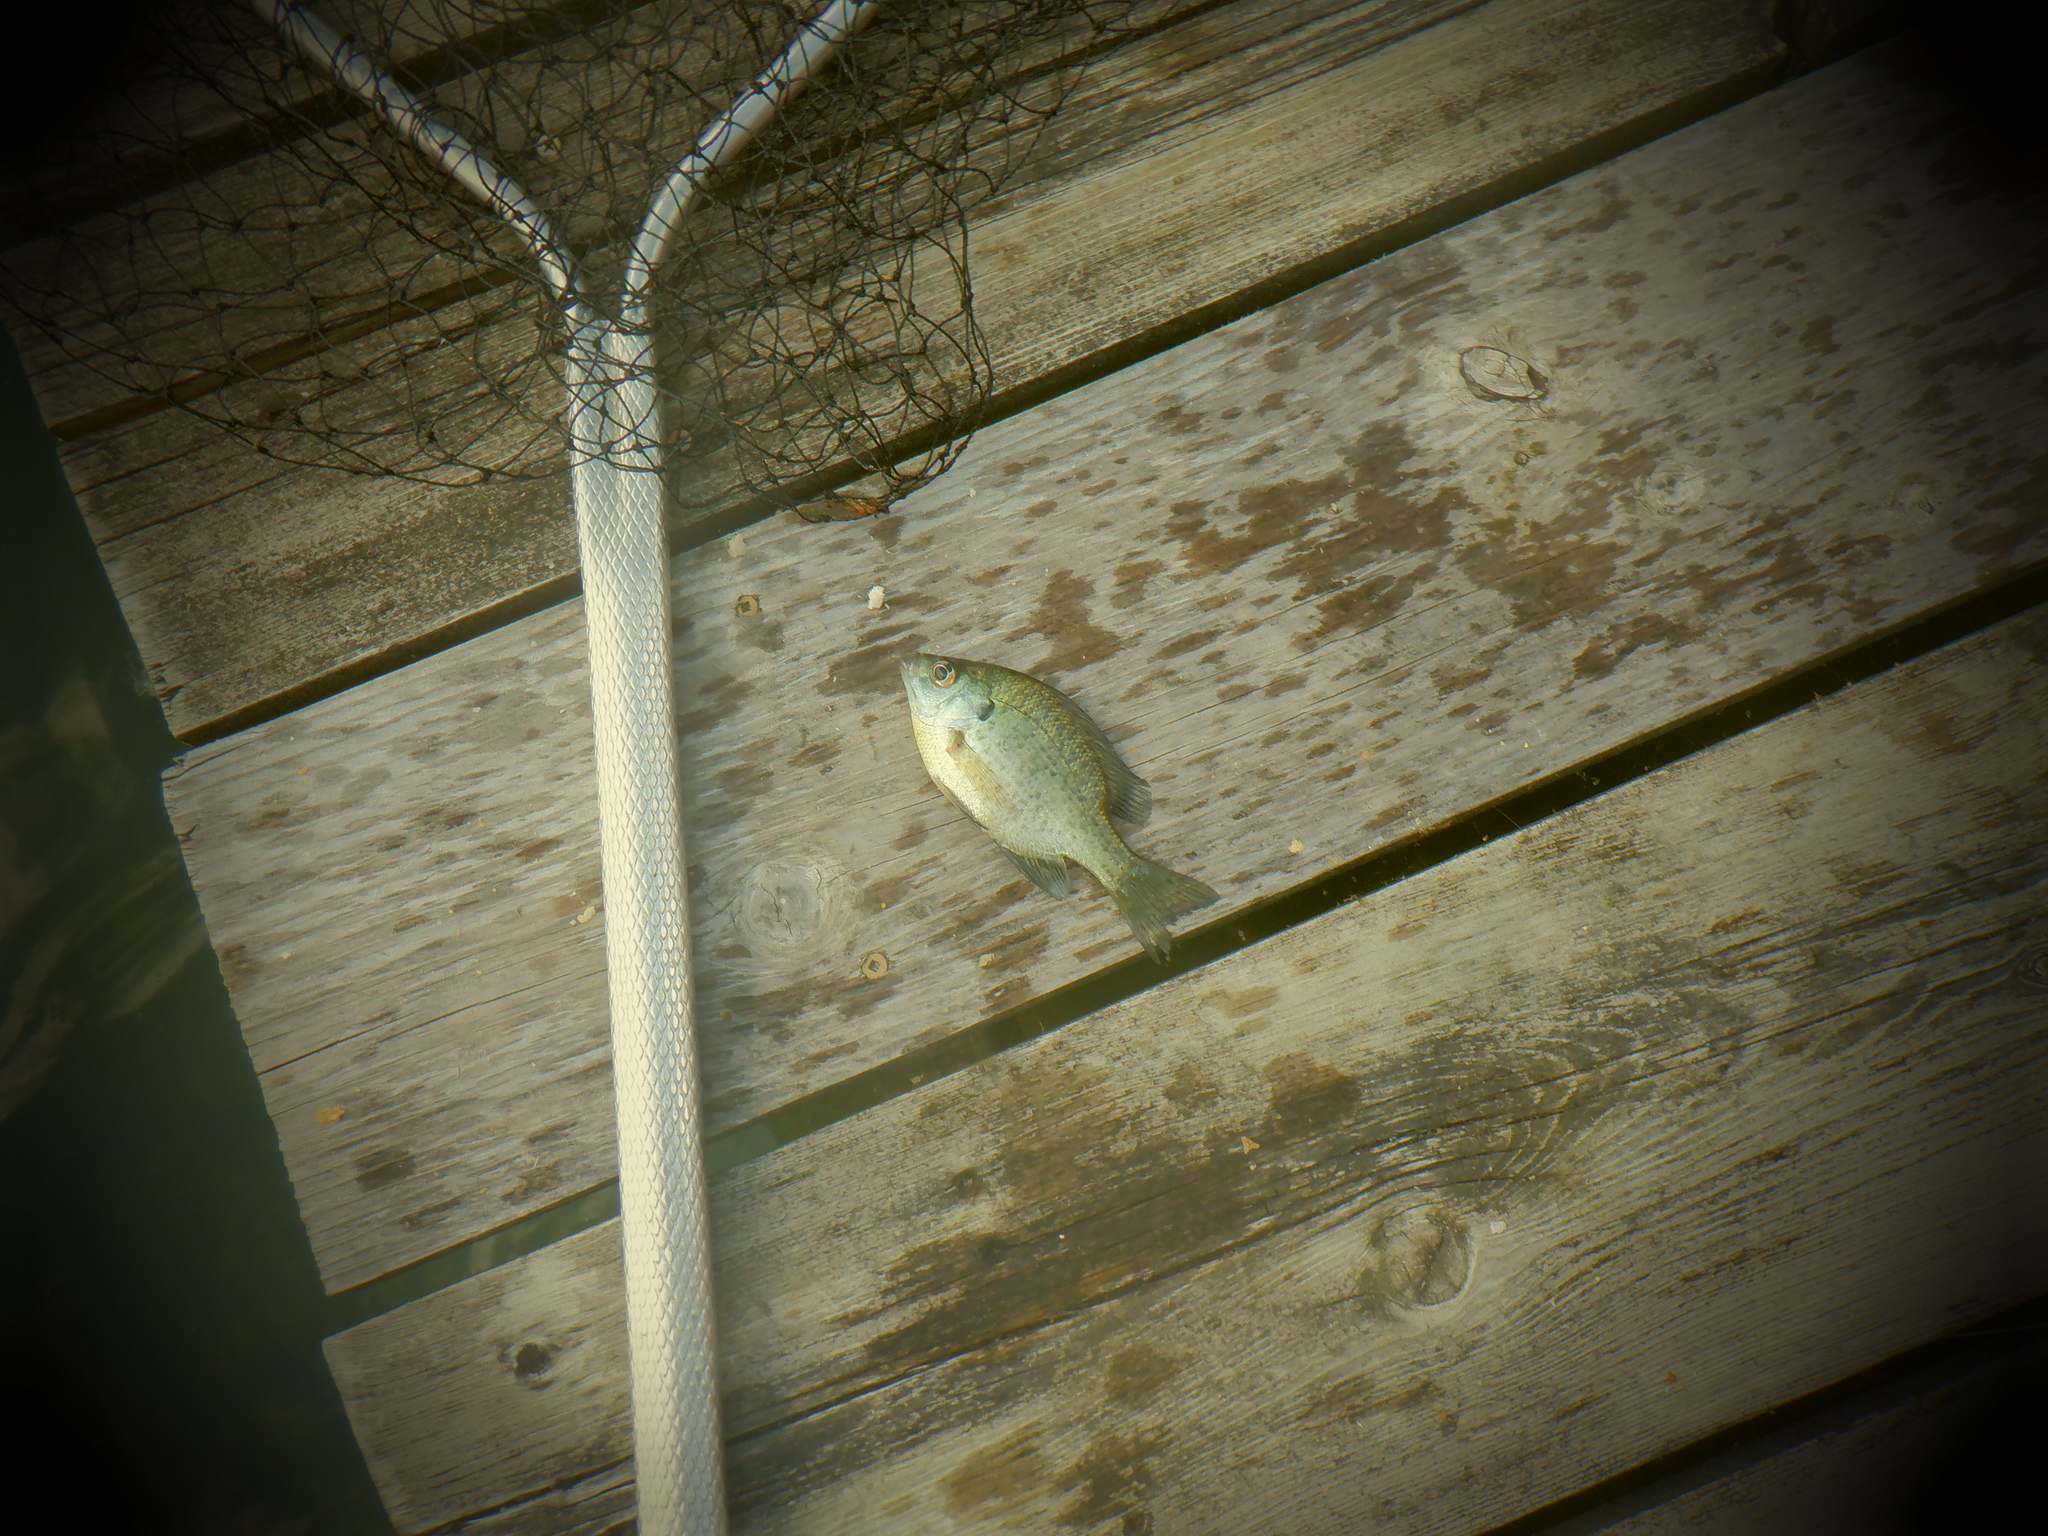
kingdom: Animalia
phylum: Chordata
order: Perciformes
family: Centrarchidae
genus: Lepomis
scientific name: Lepomis macrochirus
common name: Bluegill
